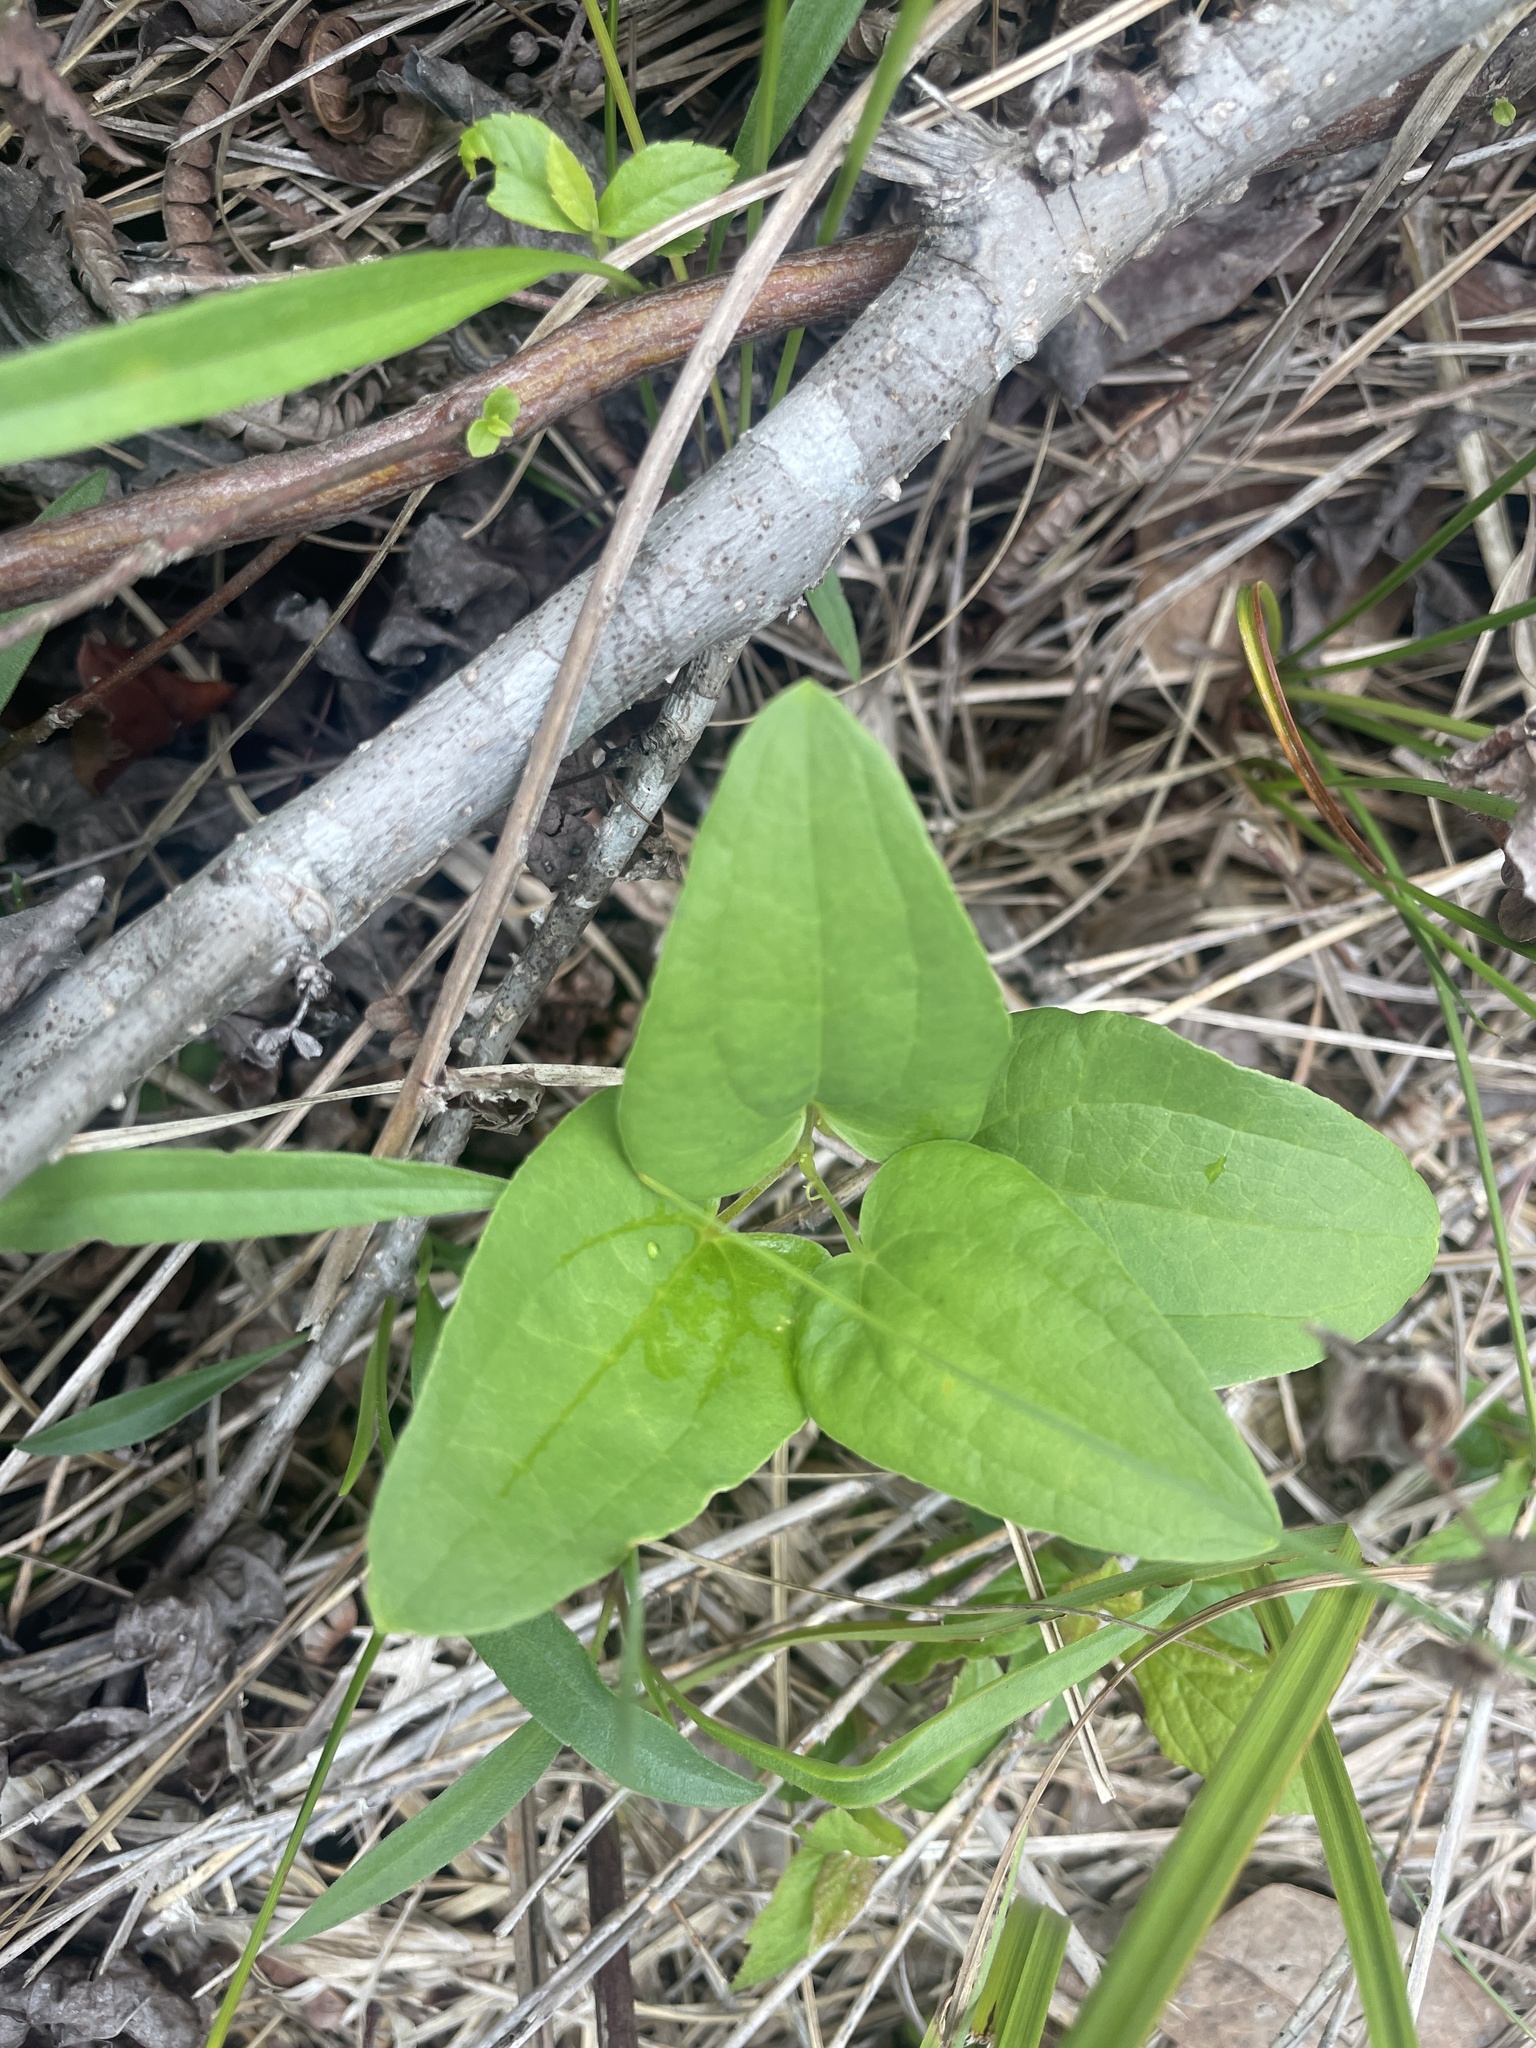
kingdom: Plantae
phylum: Tracheophyta
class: Liliopsida
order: Liliales
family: Smilacaceae
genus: Smilax
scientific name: Smilax pseudochina
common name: False chinaroot
